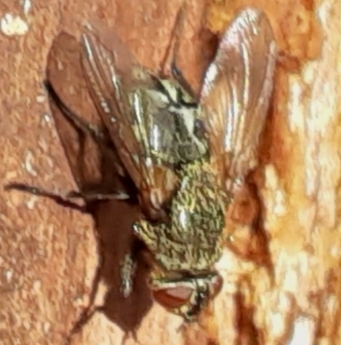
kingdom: Animalia
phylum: Arthropoda
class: Insecta
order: Diptera
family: Polleniidae
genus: Pollenia
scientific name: Pollenia
